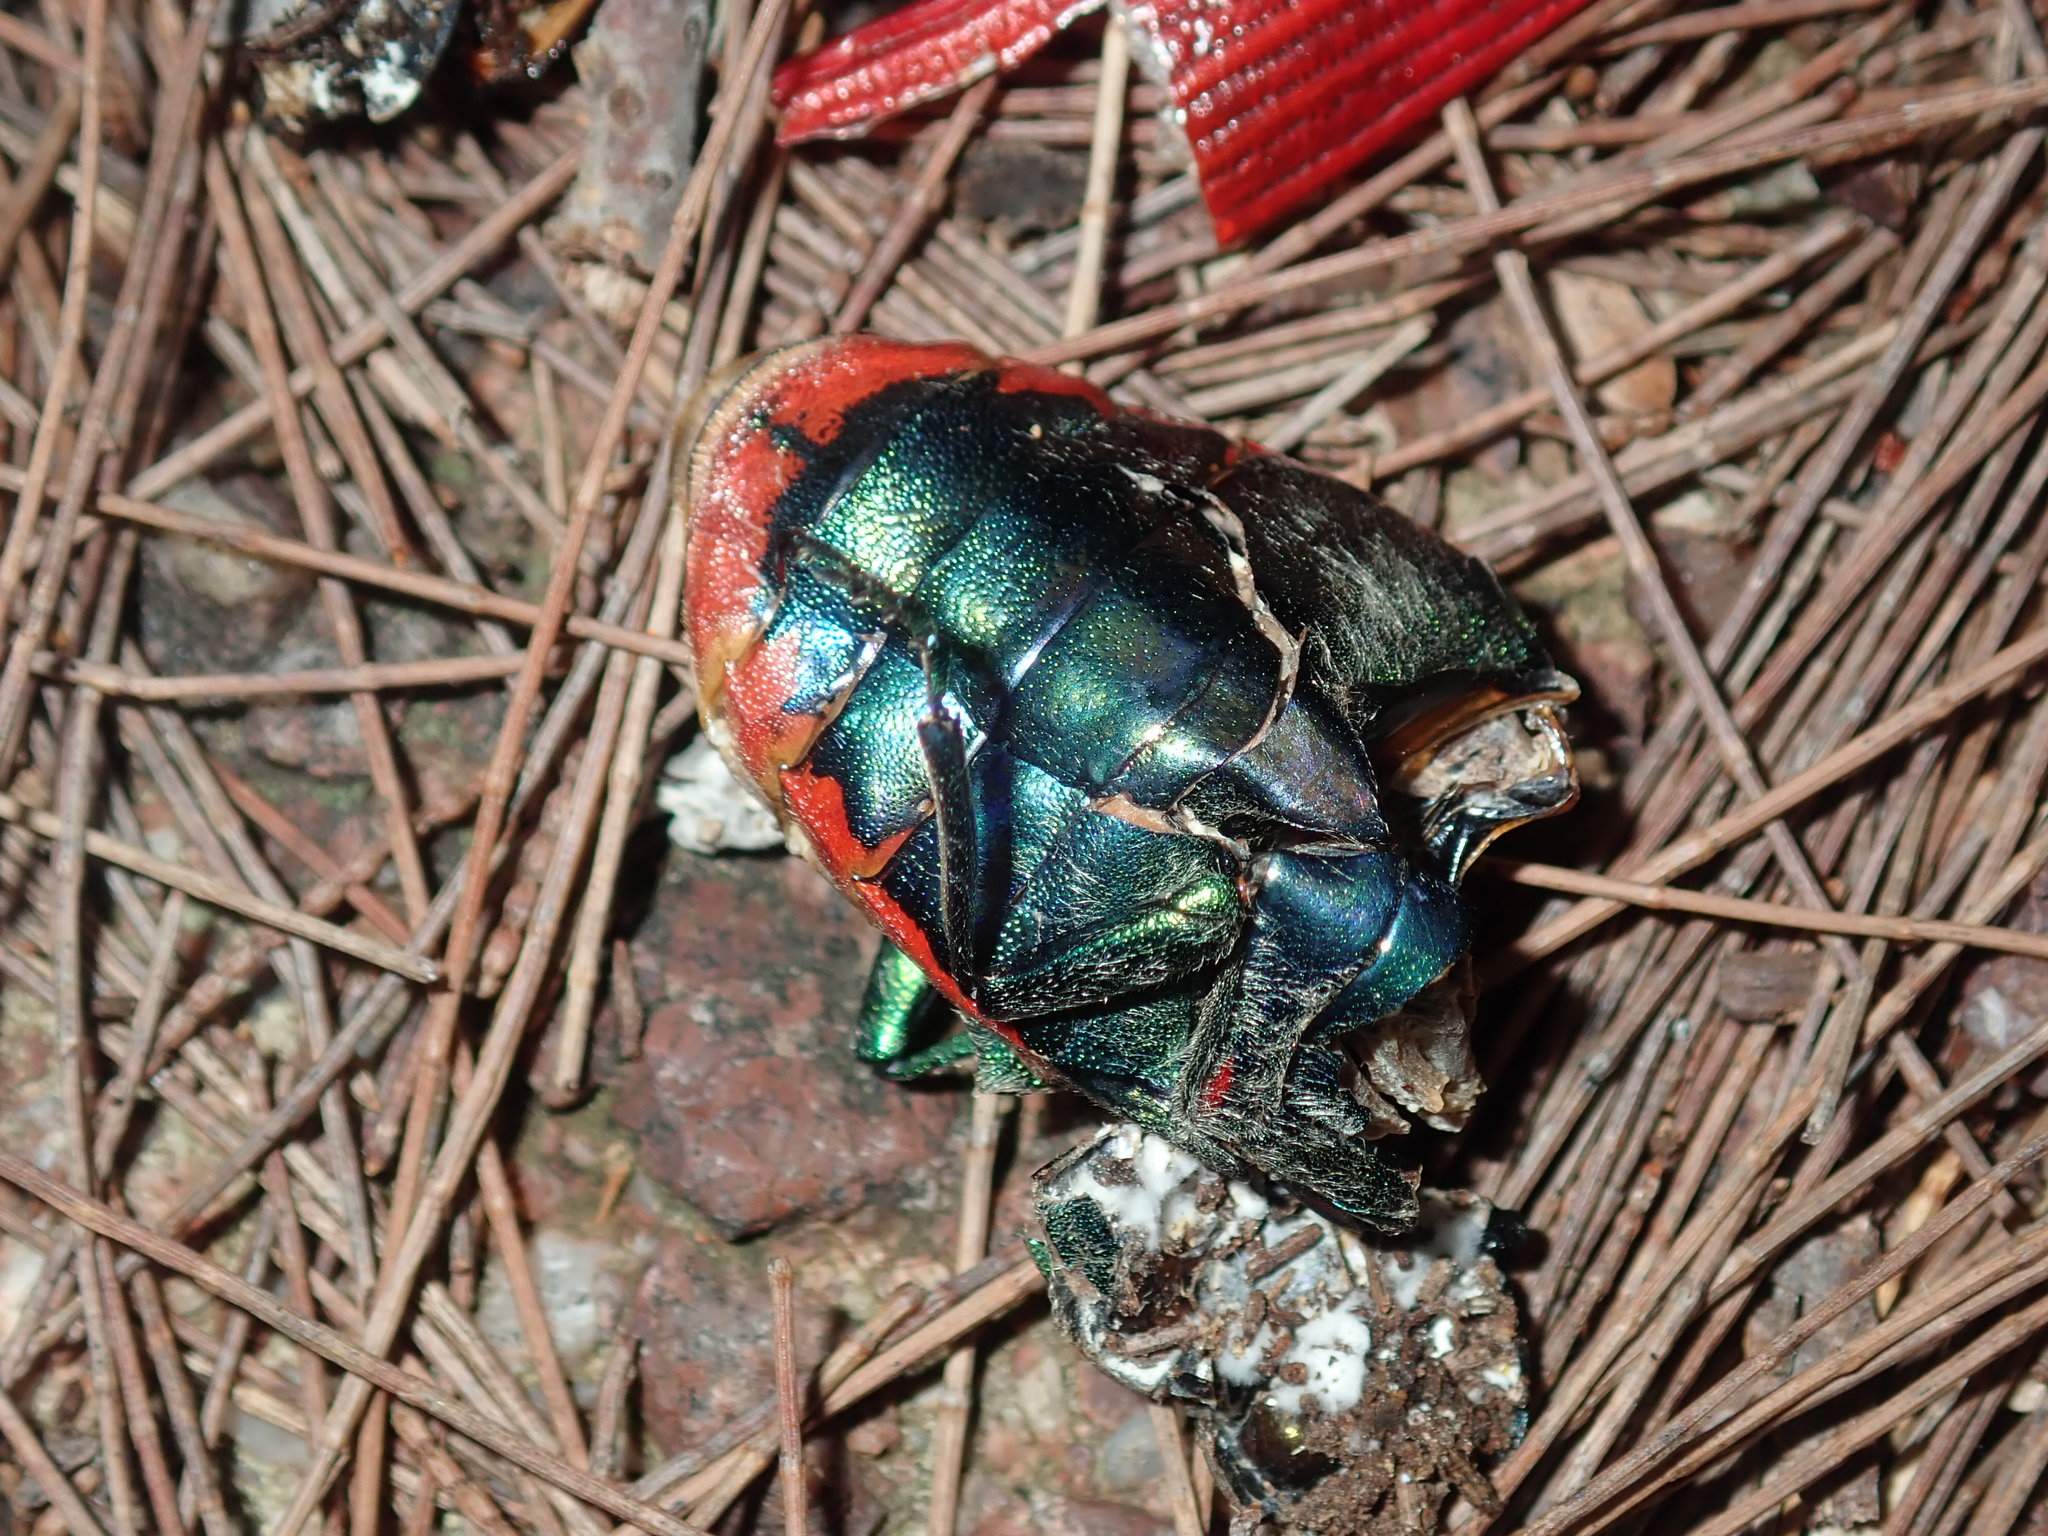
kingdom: Animalia
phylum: Arthropoda
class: Insecta
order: Coleoptera
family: Buprestidae
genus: Temognatha
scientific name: Temognatha variabilis
